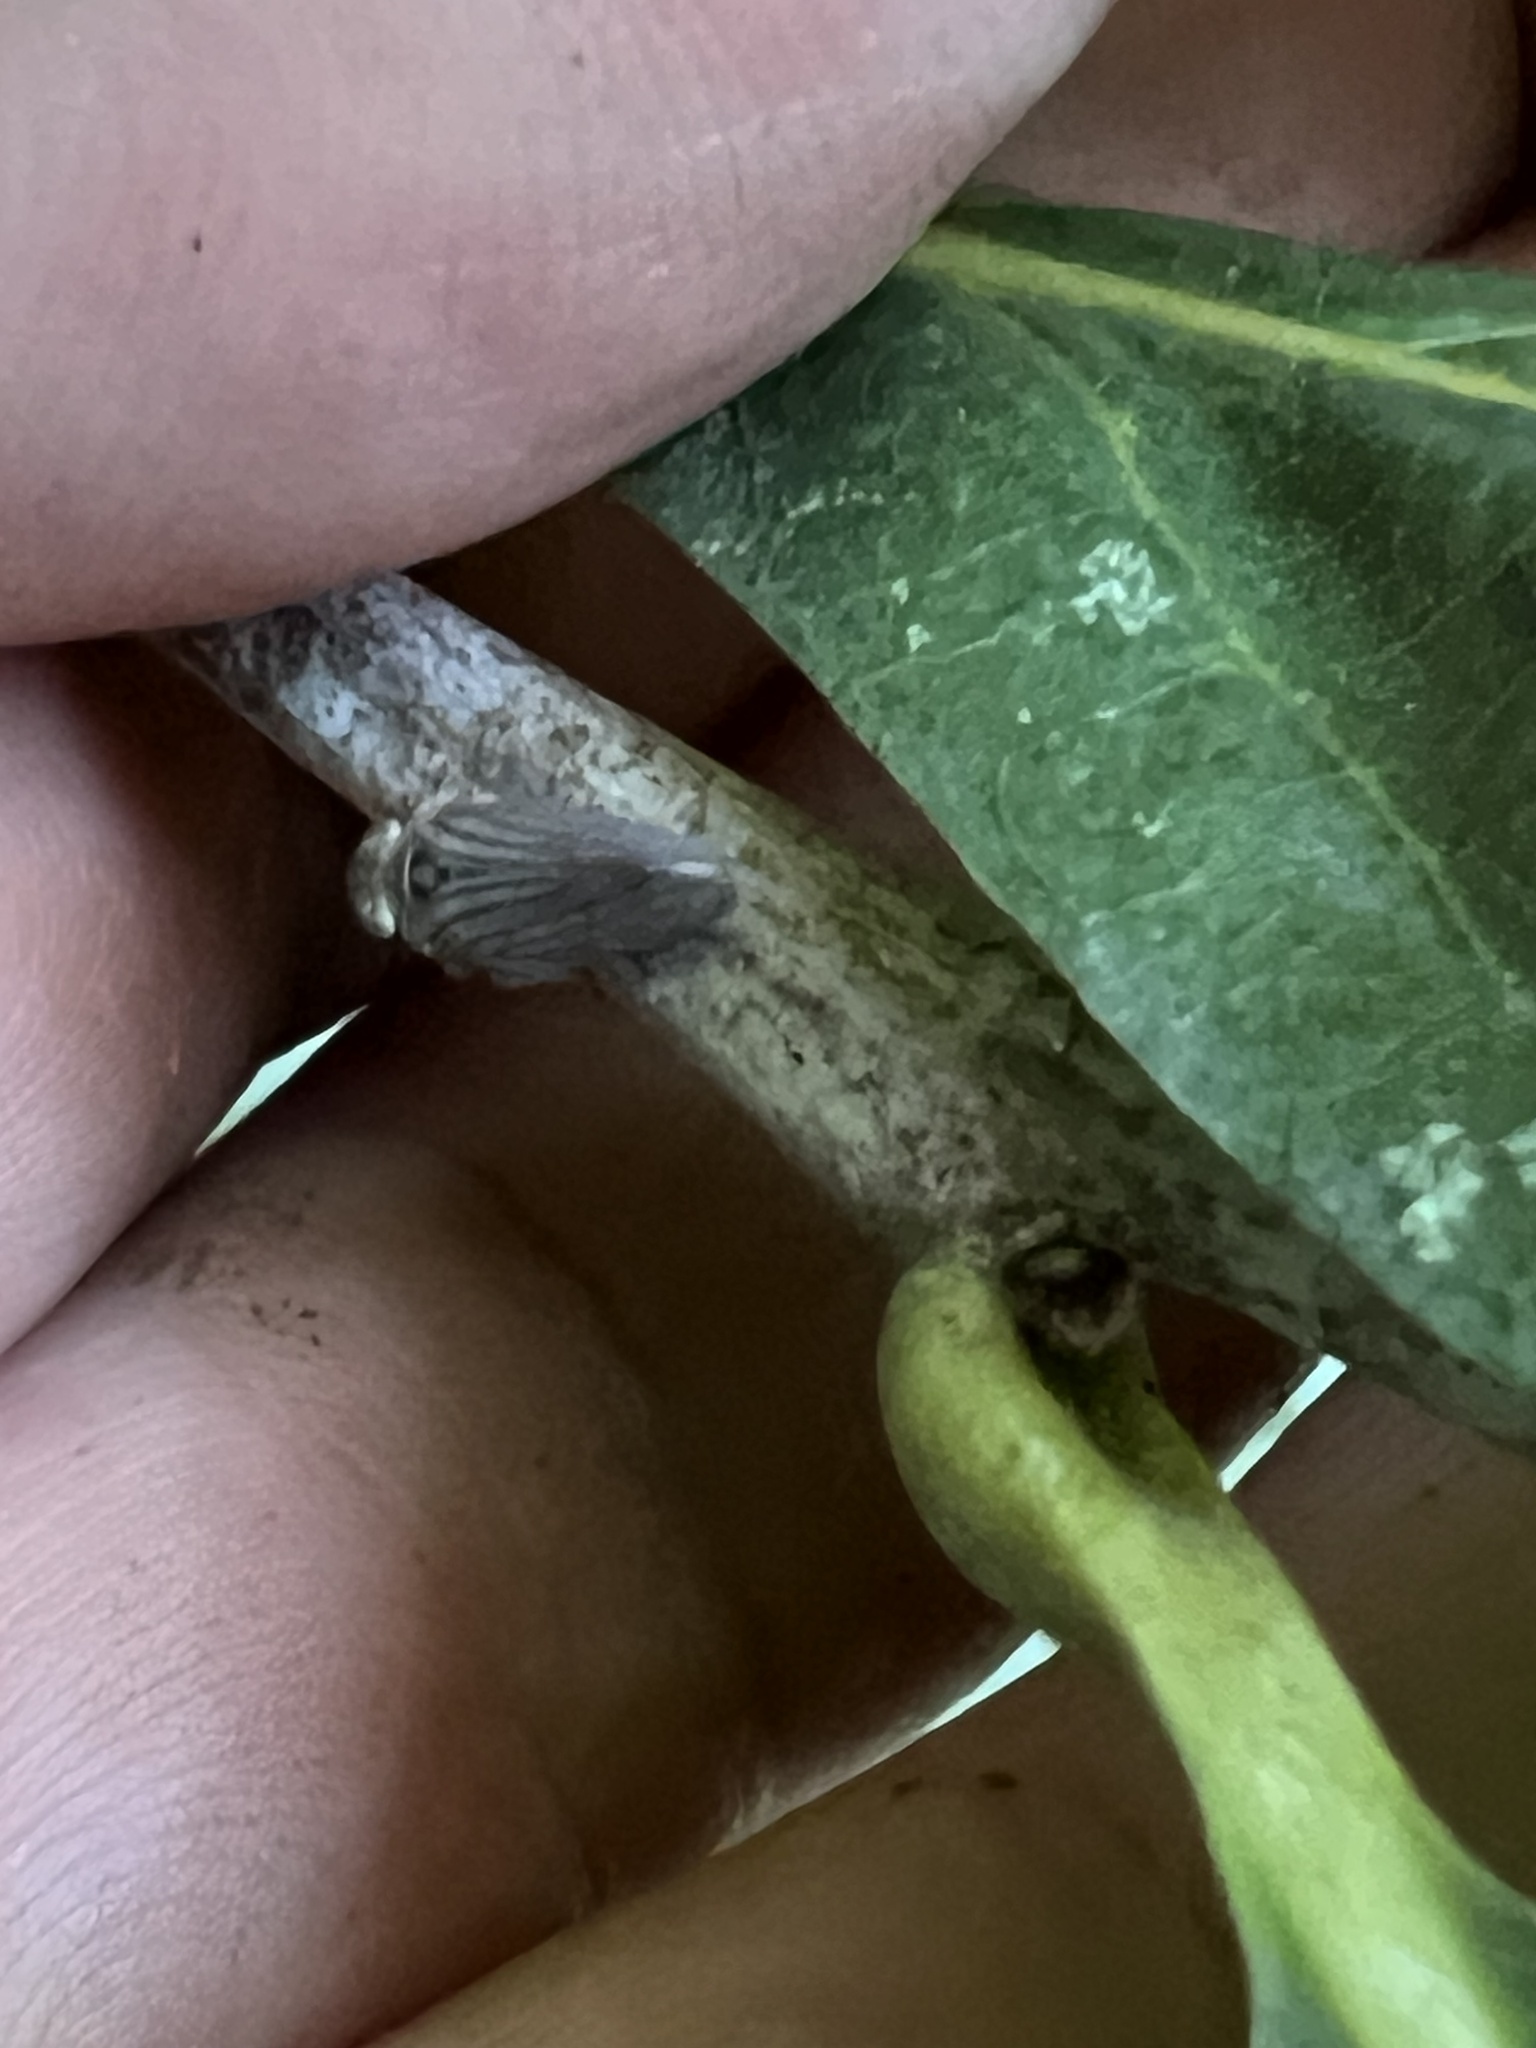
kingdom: Animalia
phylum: Arthropoda
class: Insecta
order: Hemiptera
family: Issidae
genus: Aplos
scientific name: Aplos simplex
